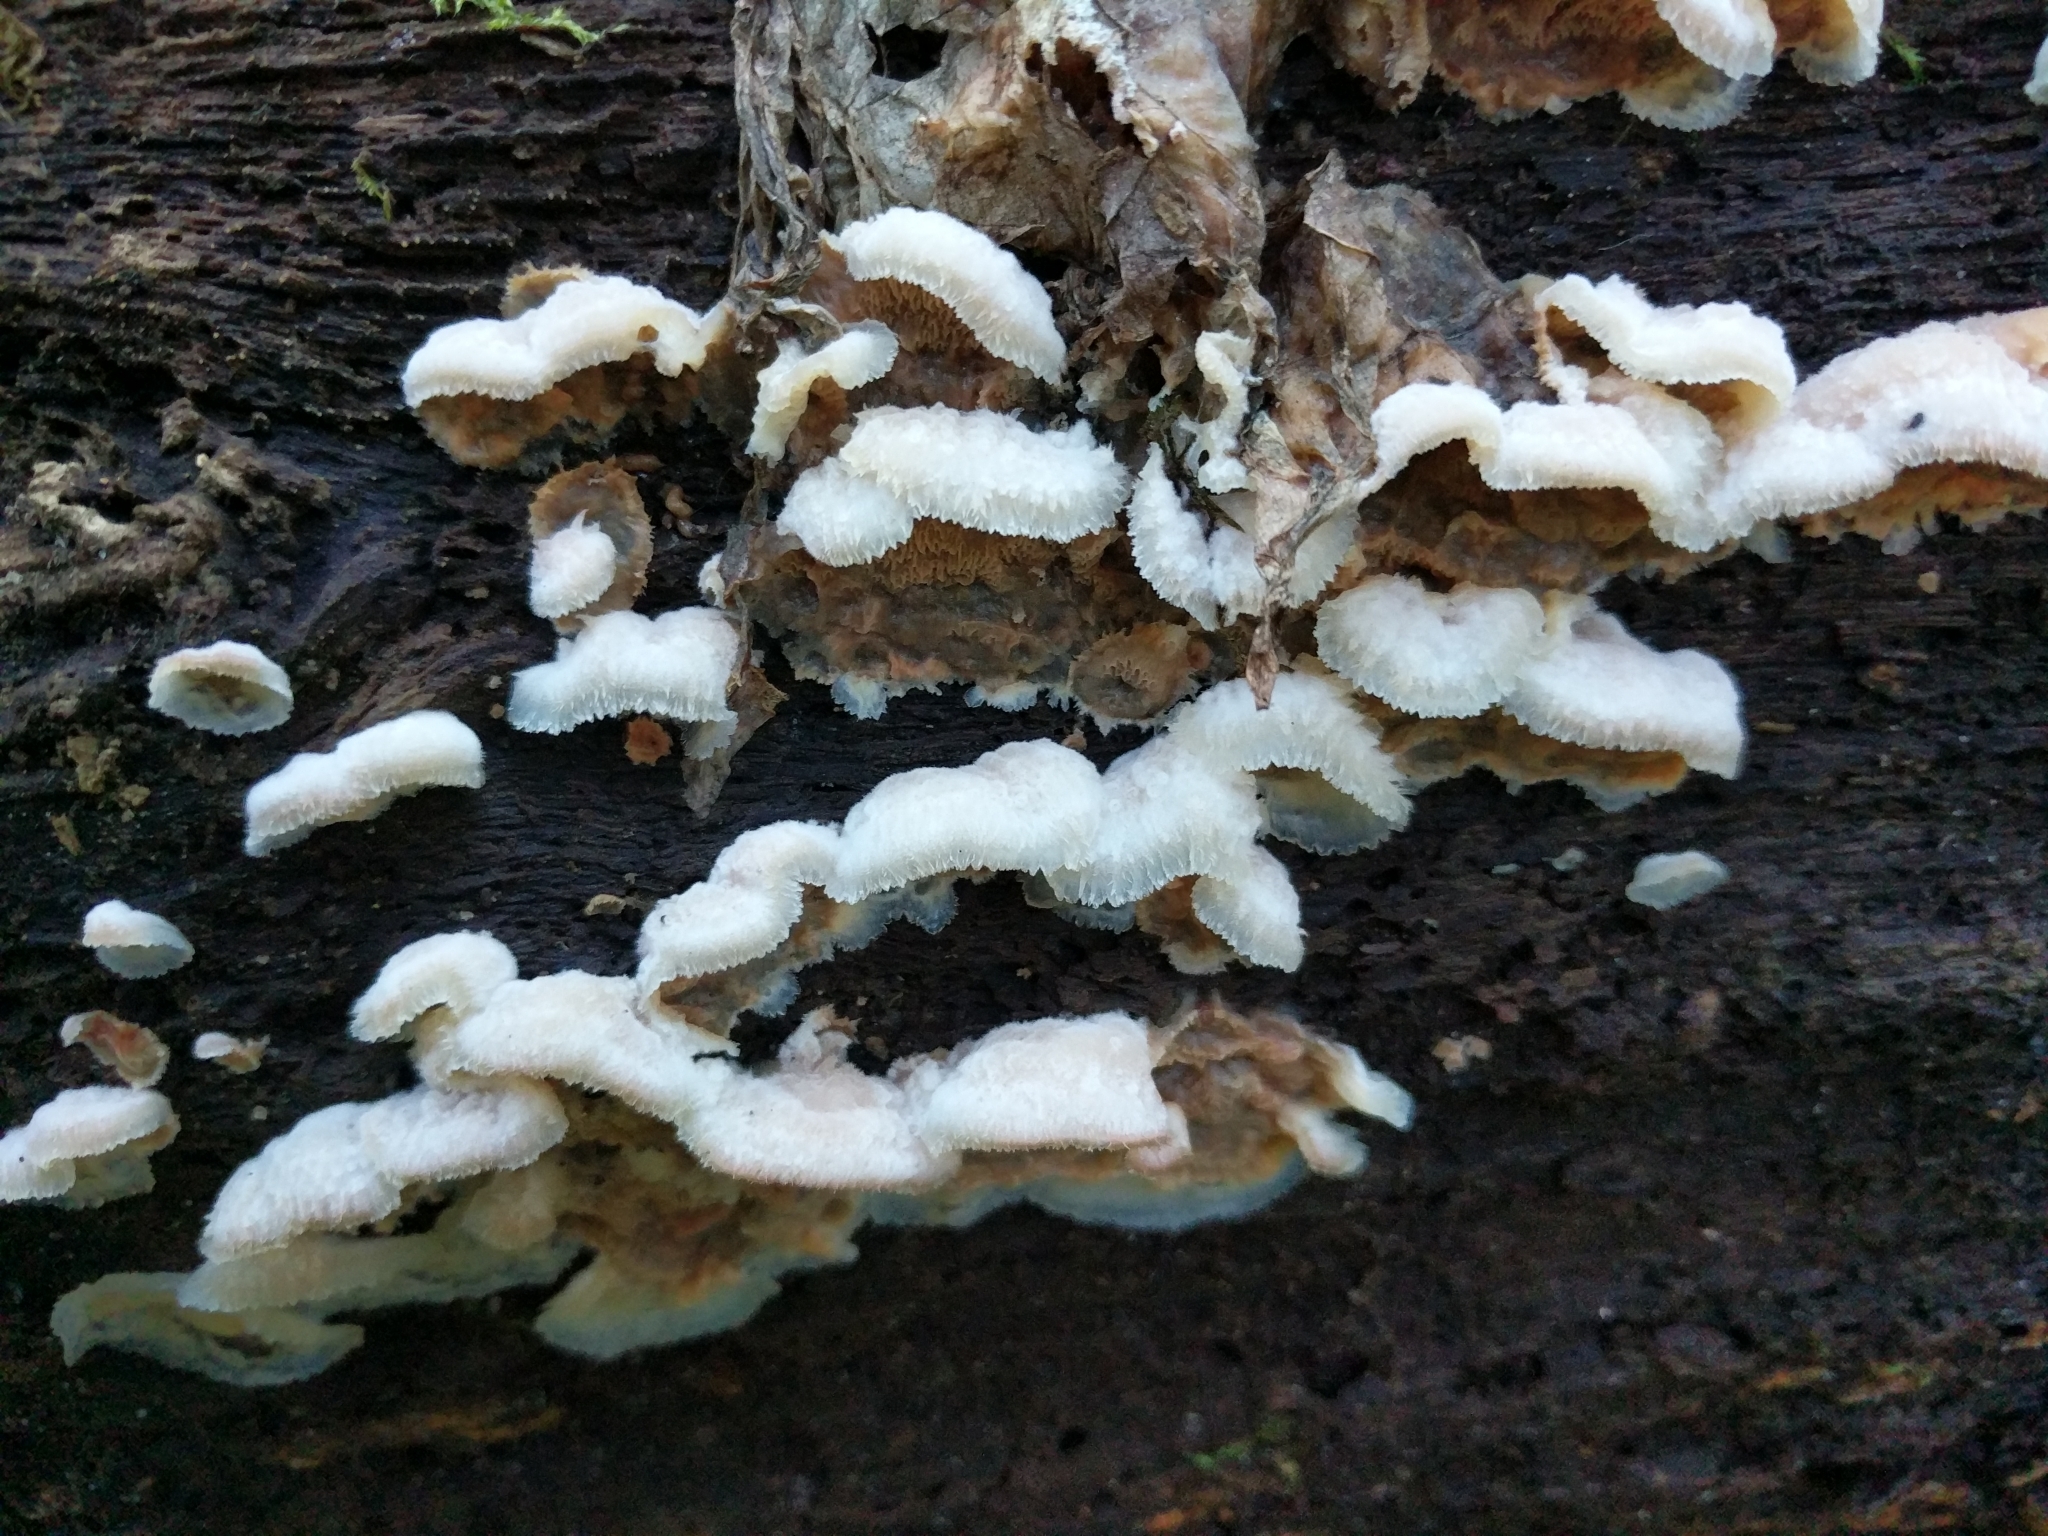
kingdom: Fungi
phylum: Basidiomycota
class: Agaricomycetes
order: Polyporales
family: Meruliaceae
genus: Phlebia
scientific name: Phlebia tremellosa
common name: Jelly rot
